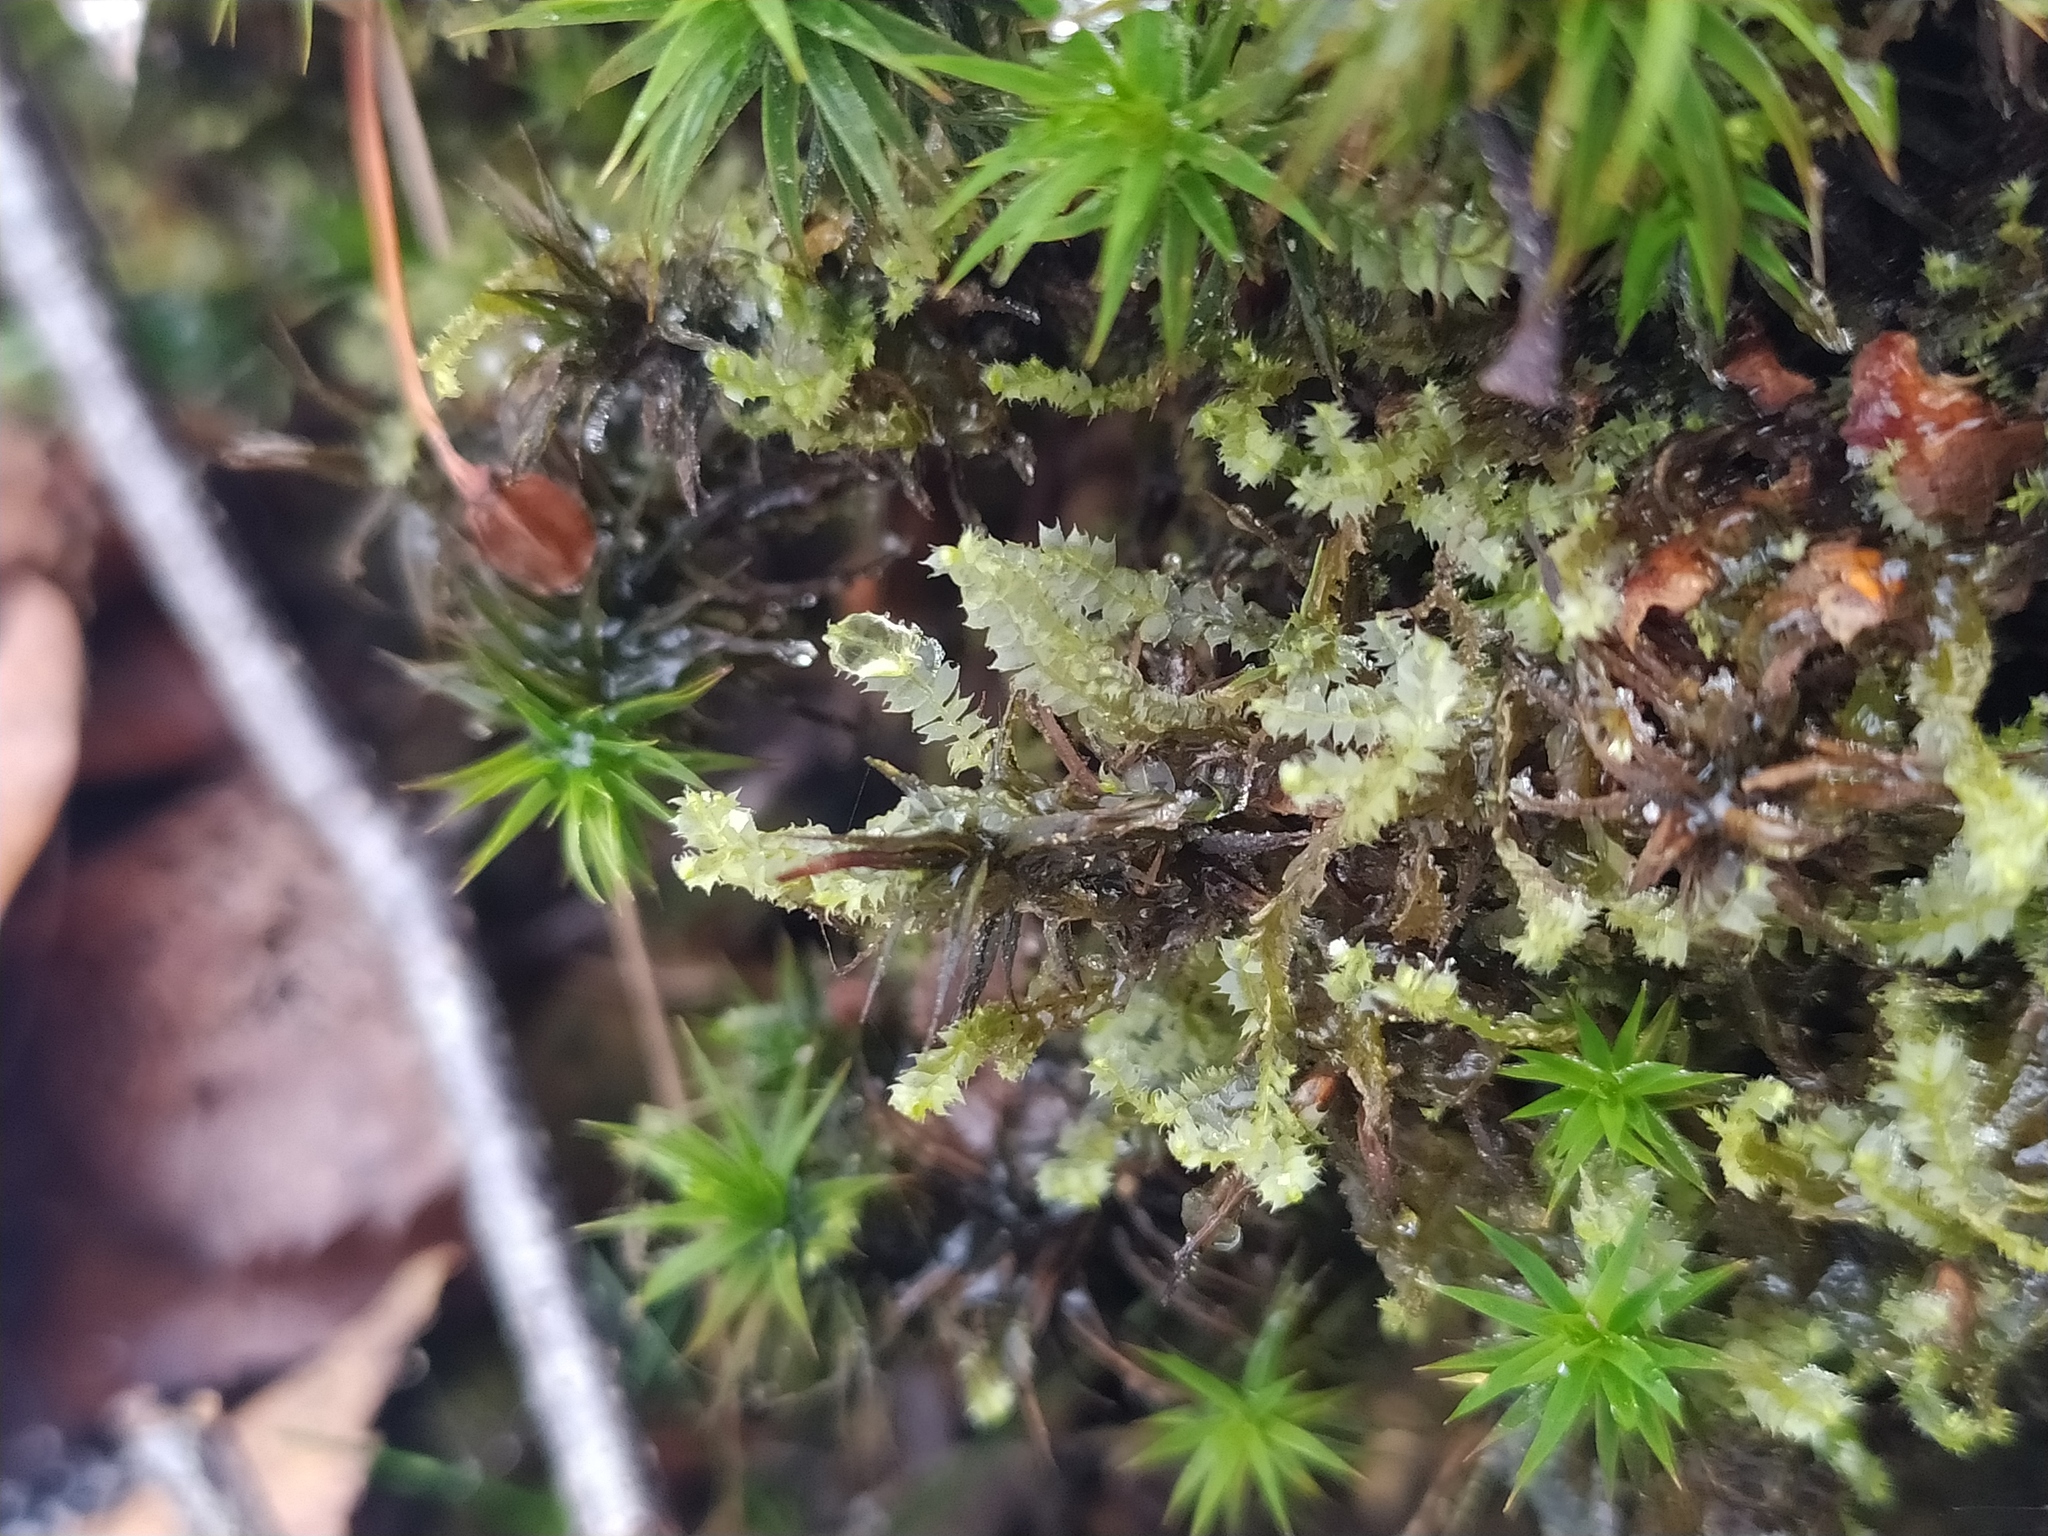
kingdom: Plantae
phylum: Marchantiophyta
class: Jungermanniopsida
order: Jungermanniales
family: Lophocoleaceae
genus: Lophocolea
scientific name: Lophocolea bidentata
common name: Bifid crestwort
